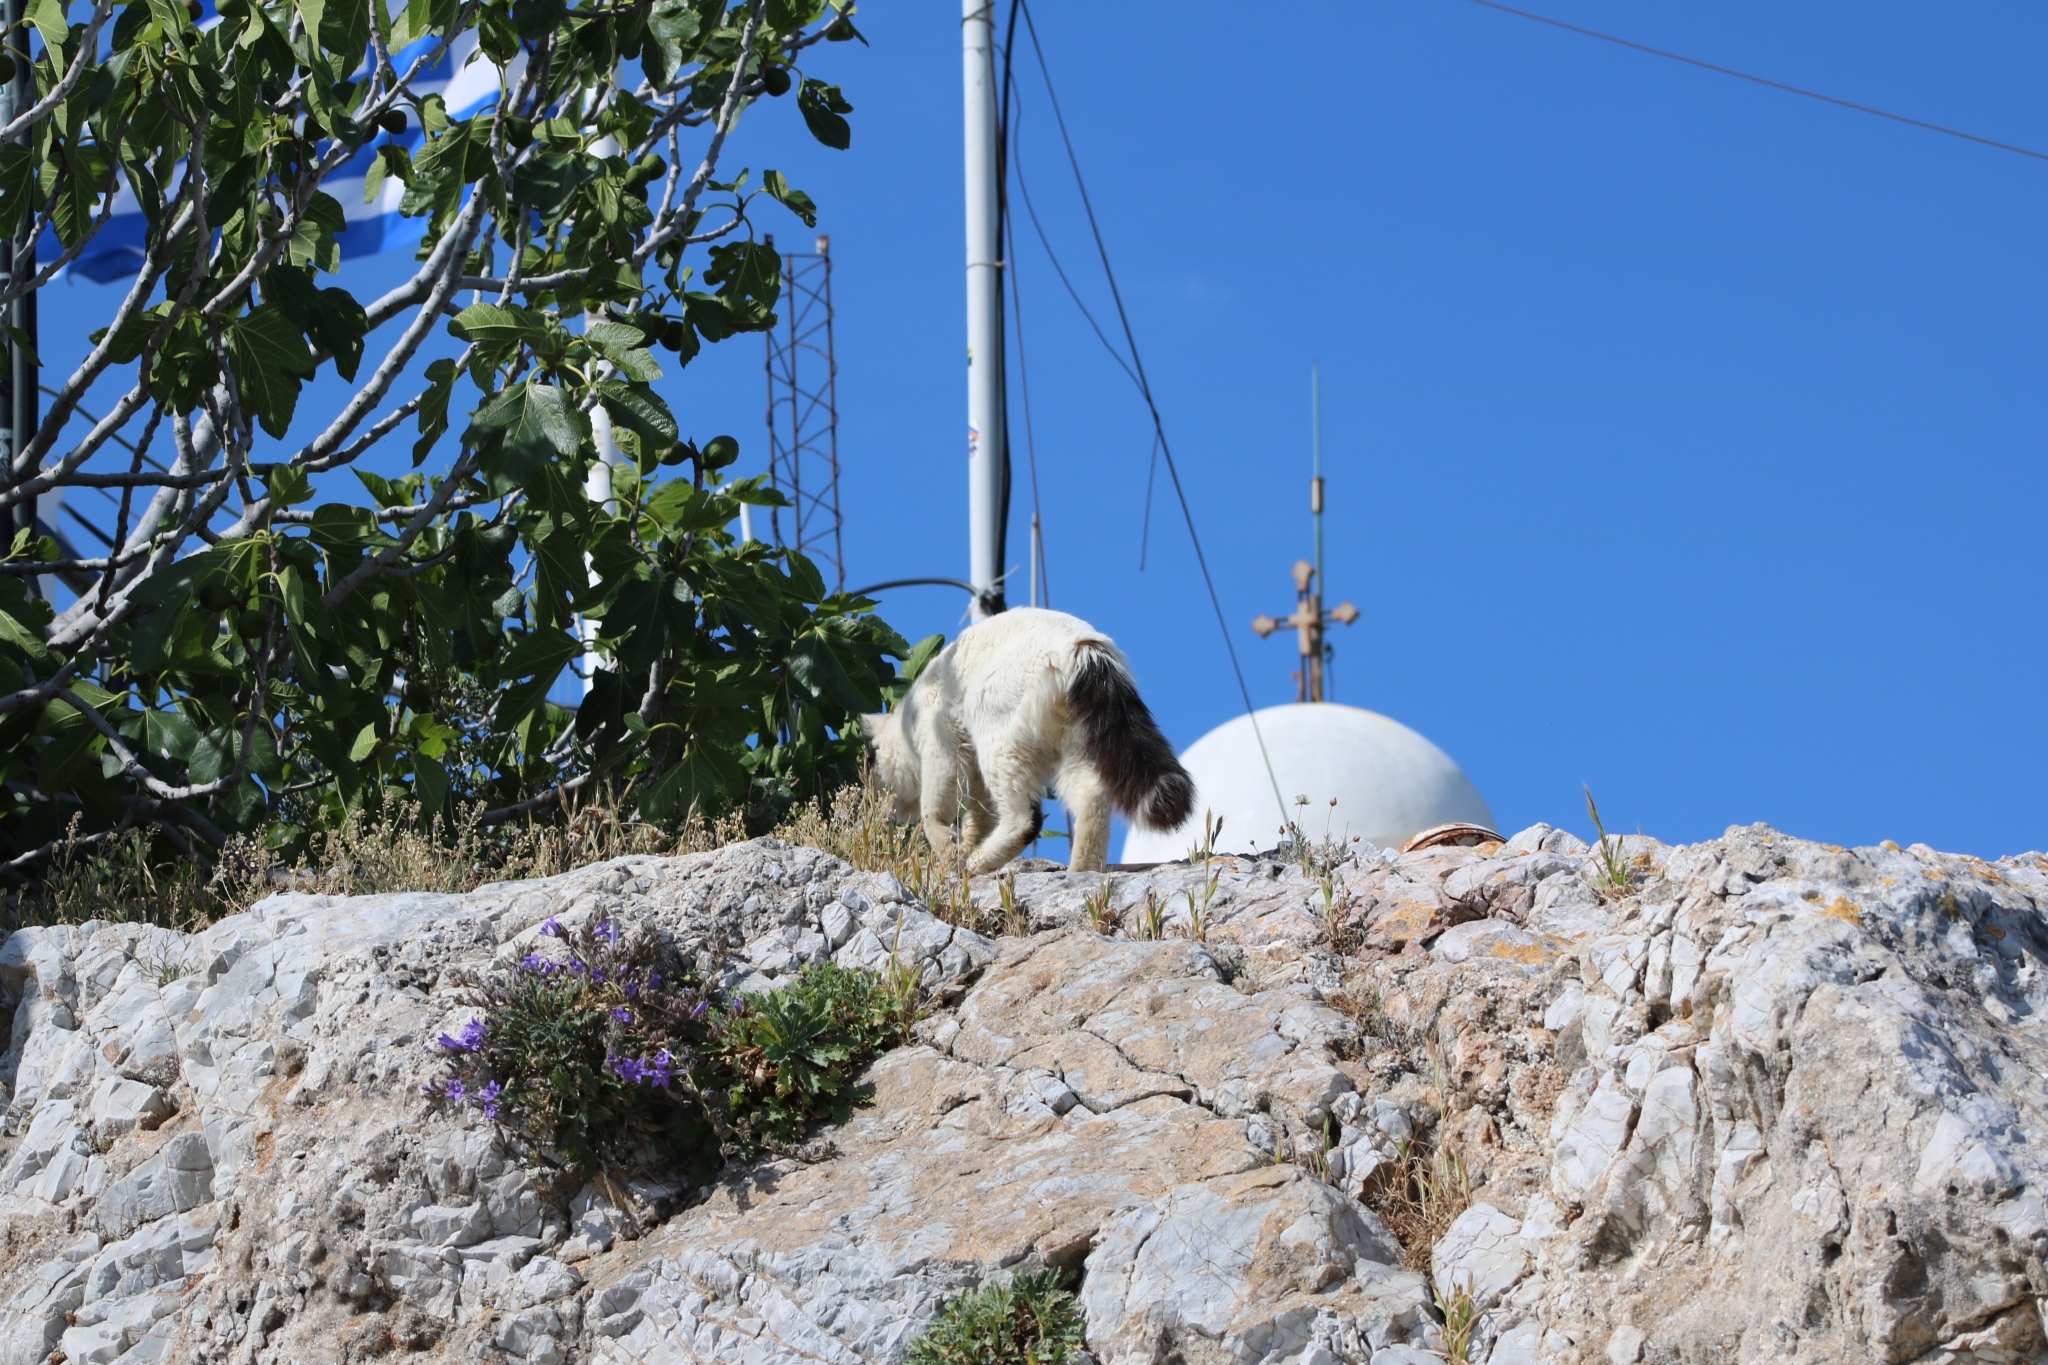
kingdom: Animalia
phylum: Chordata
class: Mammalia
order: Carnivora
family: Felidae
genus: Felis
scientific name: Felis catus
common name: Domestic cat
